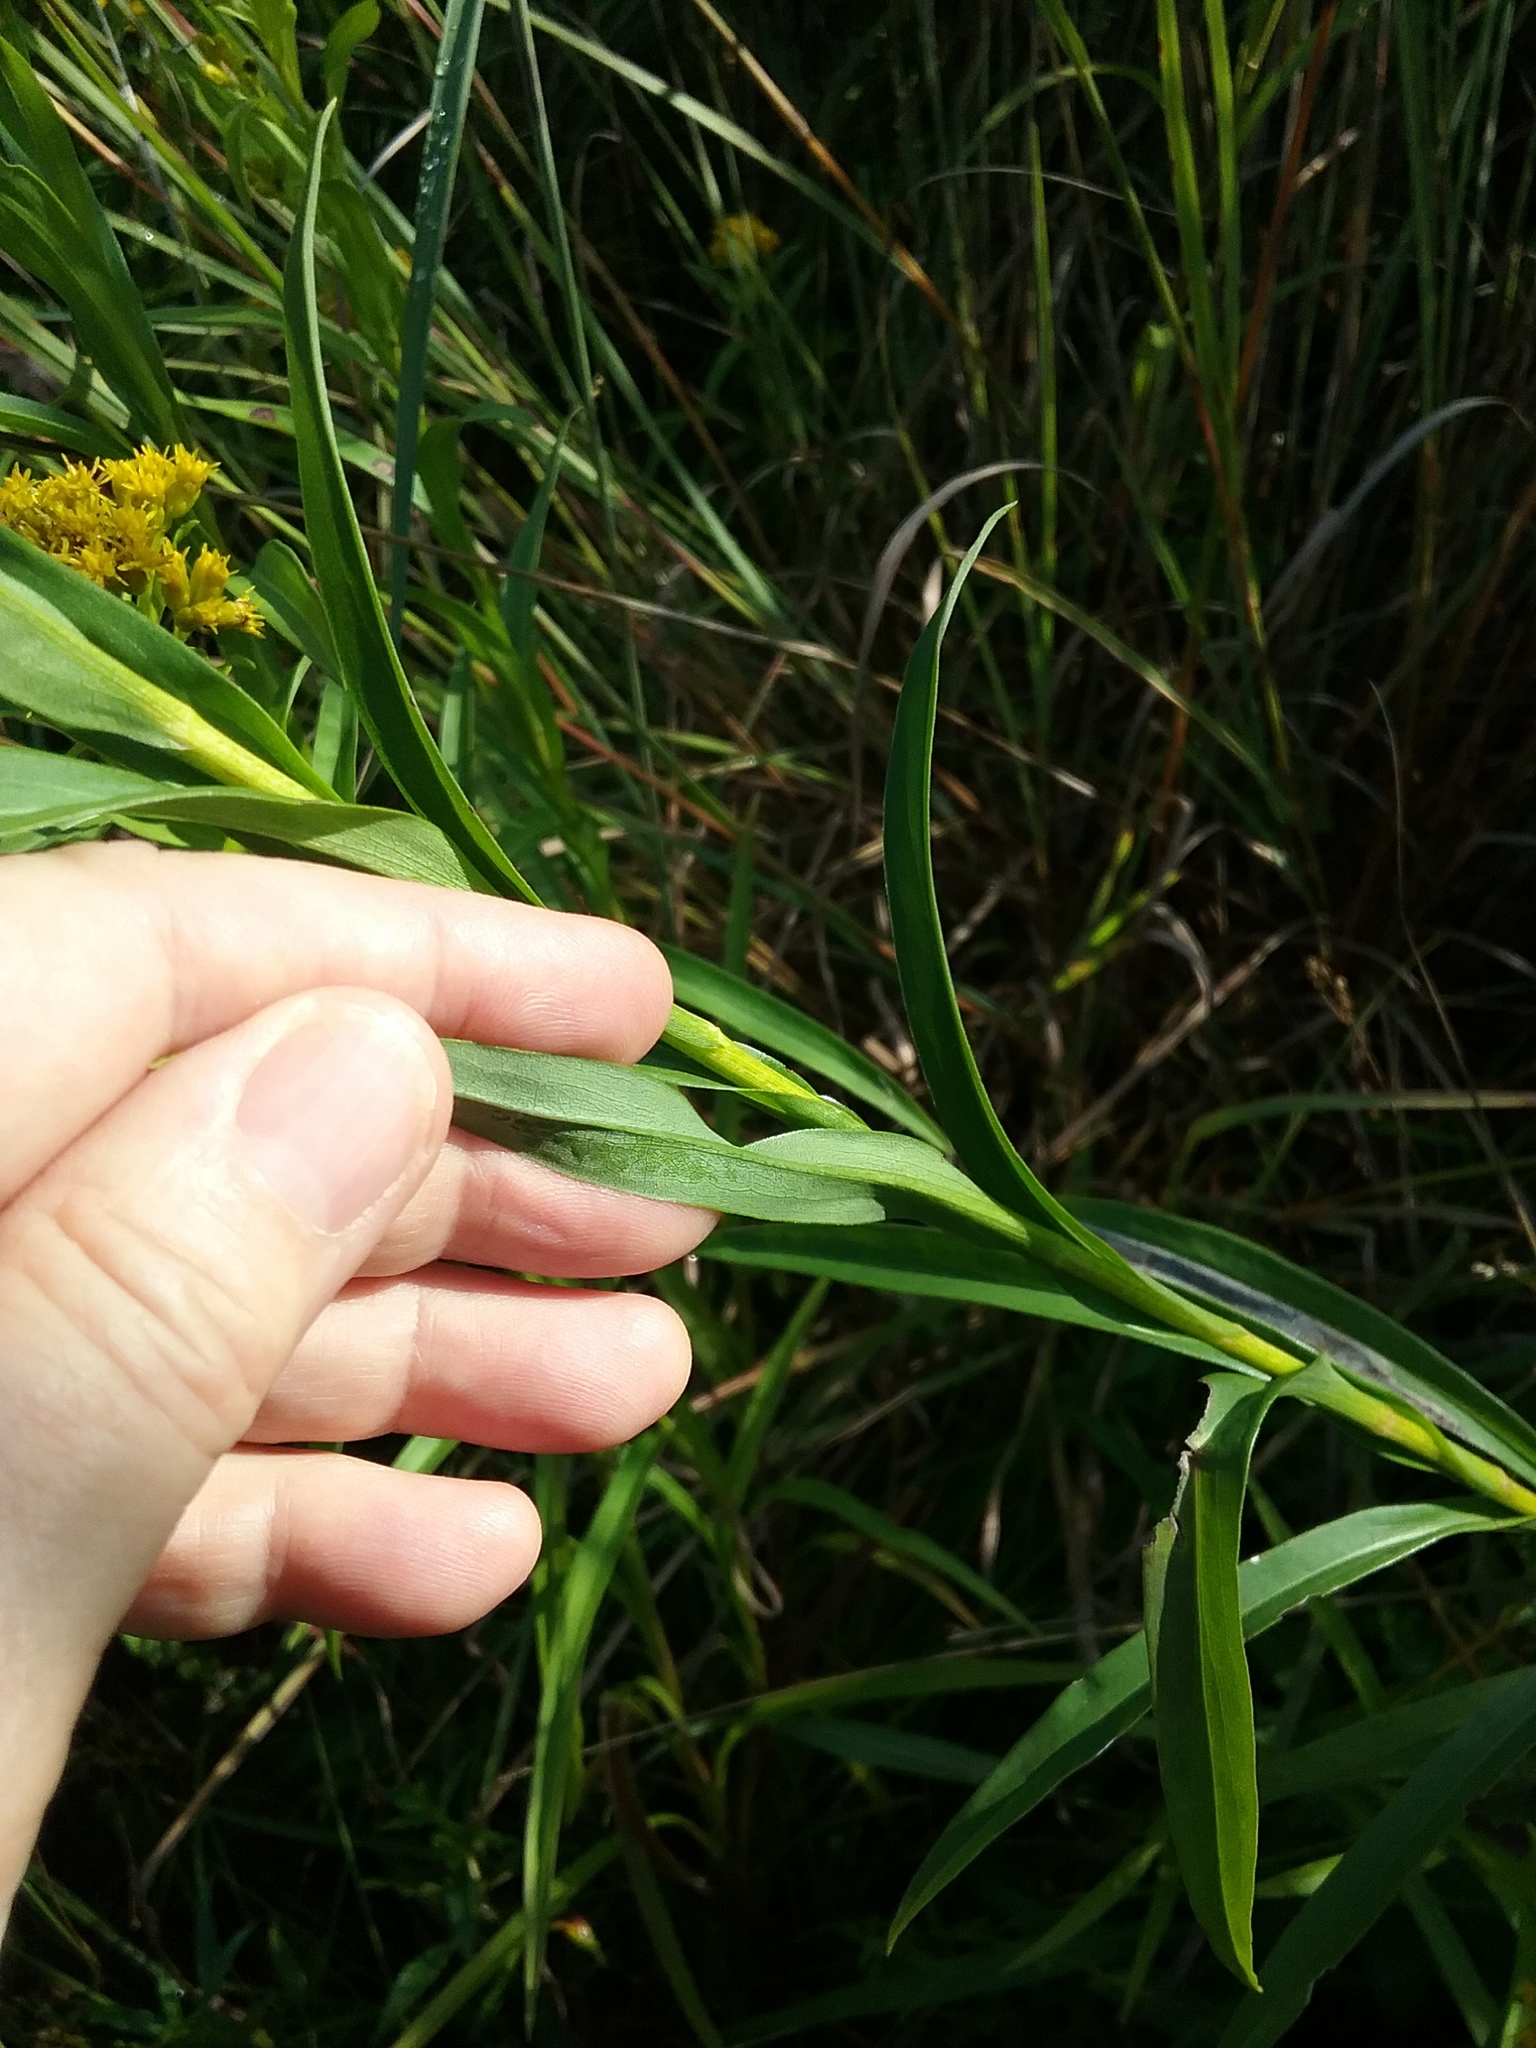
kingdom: Plantae
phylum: Tracheophyta
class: Magnoliopsida
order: Asterales
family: Asteraceae
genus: Solidago
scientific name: Solidago riddellii
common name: Riddell's goldenrod
